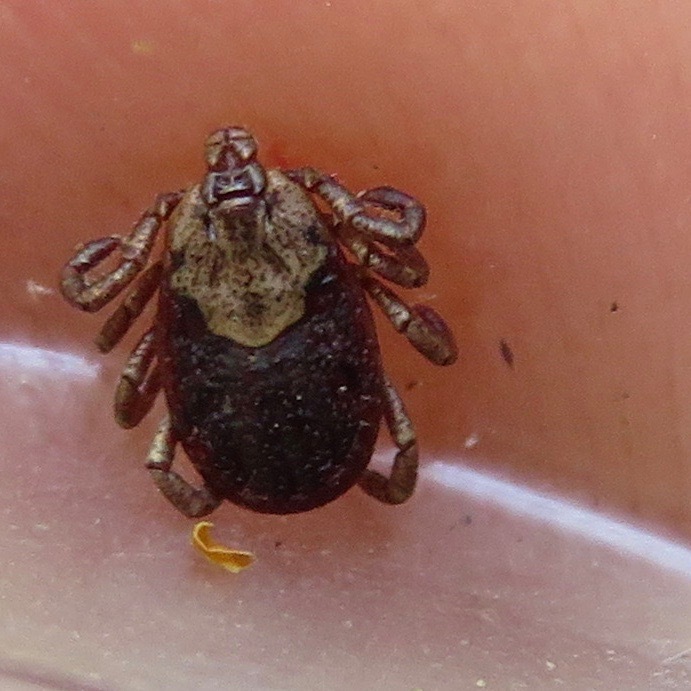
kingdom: Animalia
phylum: Arthropoda
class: Arachnida
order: Ixodida
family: Ixodidae
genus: Dermacentor
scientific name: Dermacentor occidentalis
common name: Net tick
